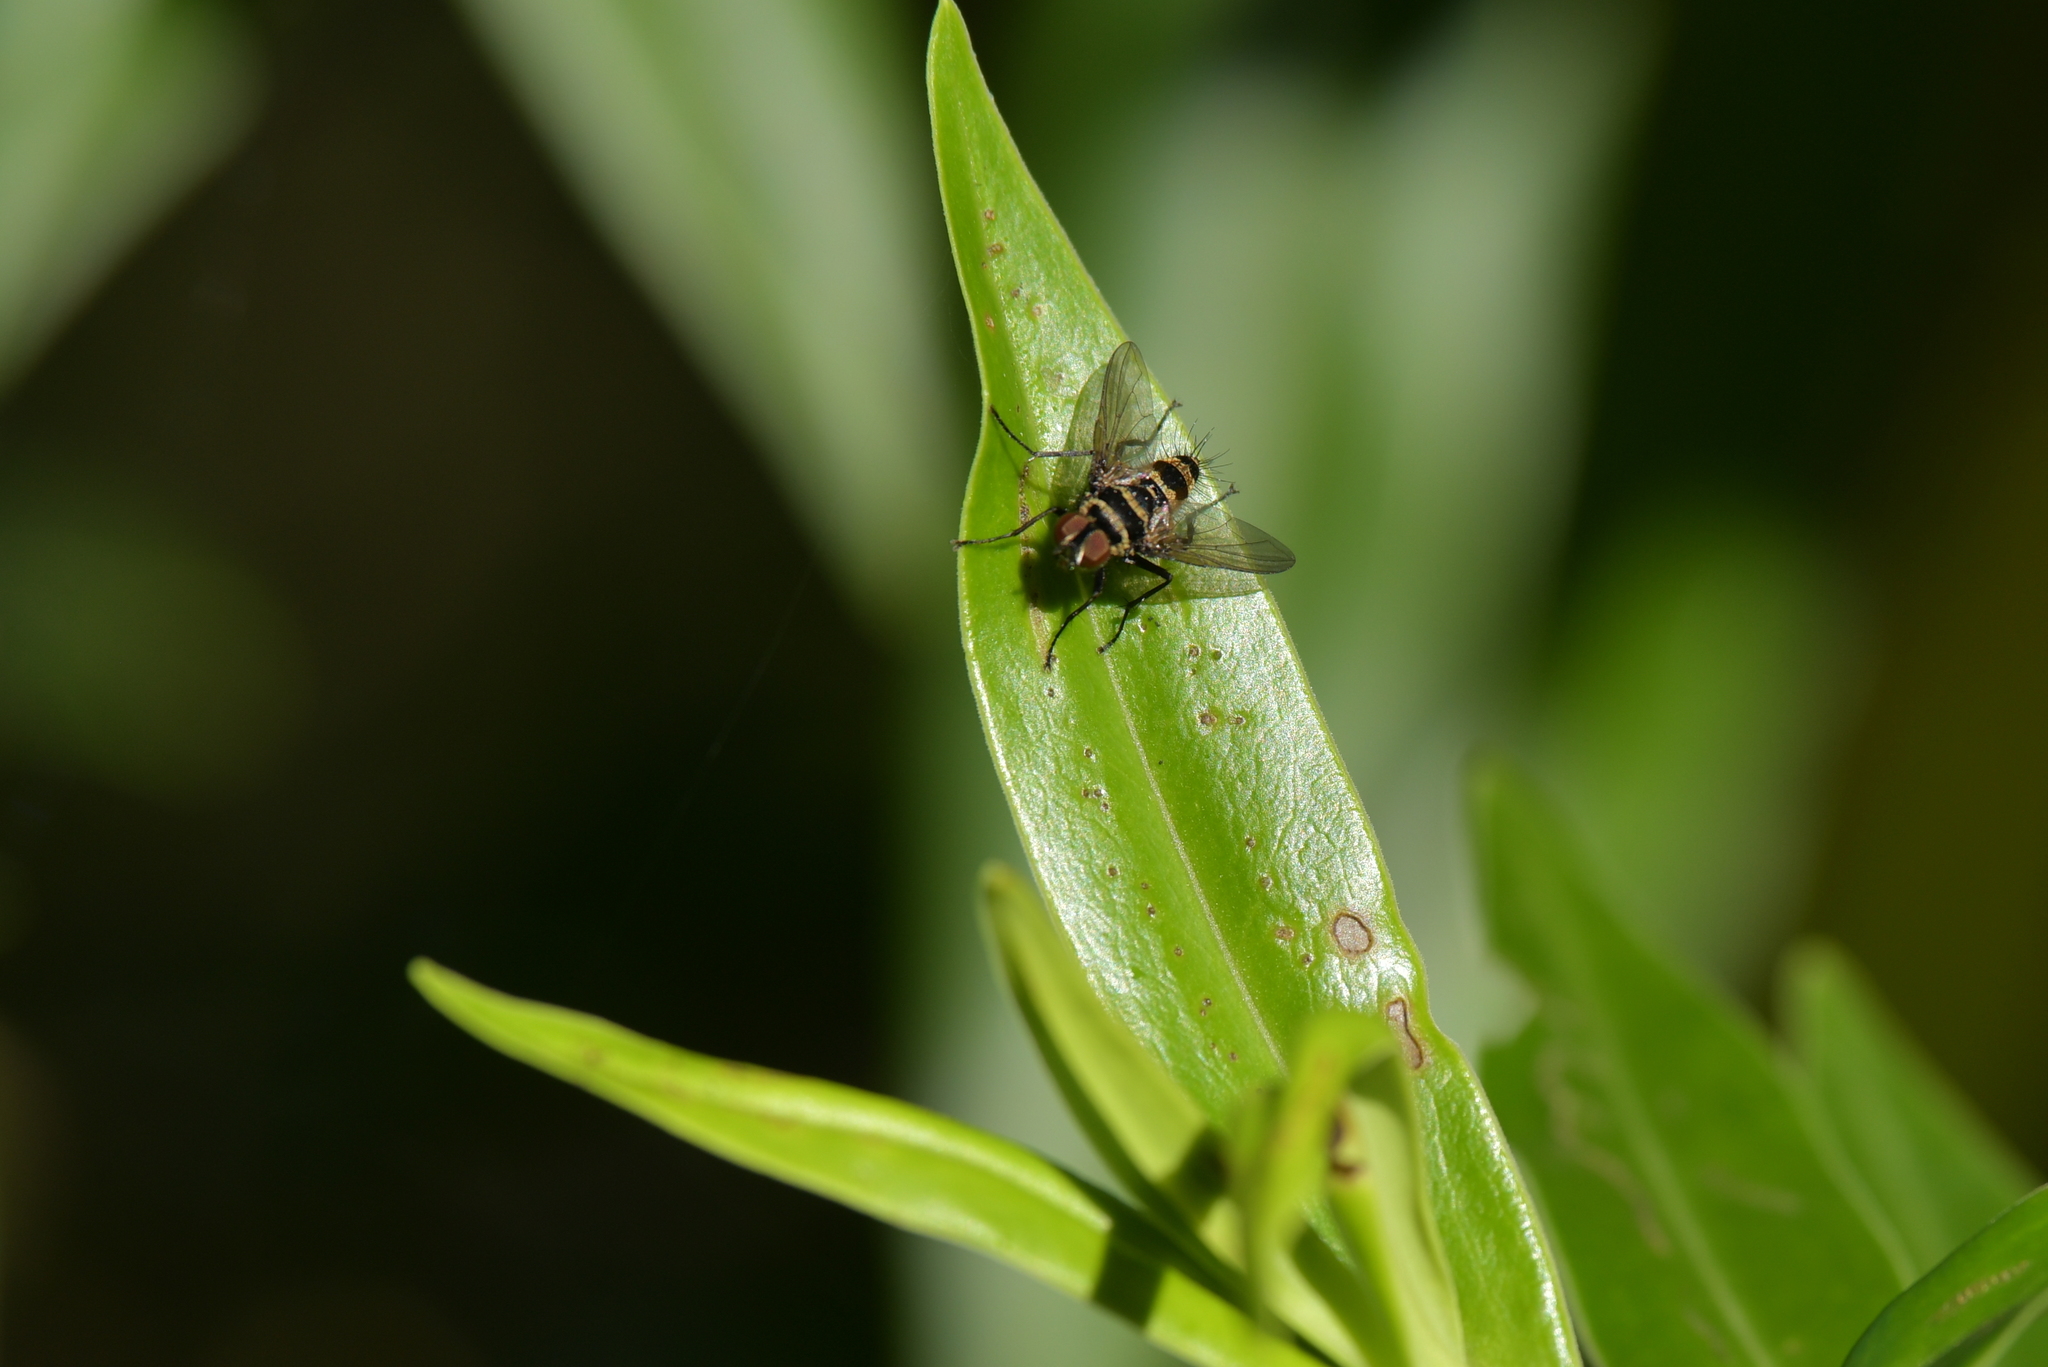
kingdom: Animalia
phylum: Arthropoda
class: Insecta
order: Diptera
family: Tachinidae
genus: Trigonospila
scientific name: Trigonospila brevifacies
